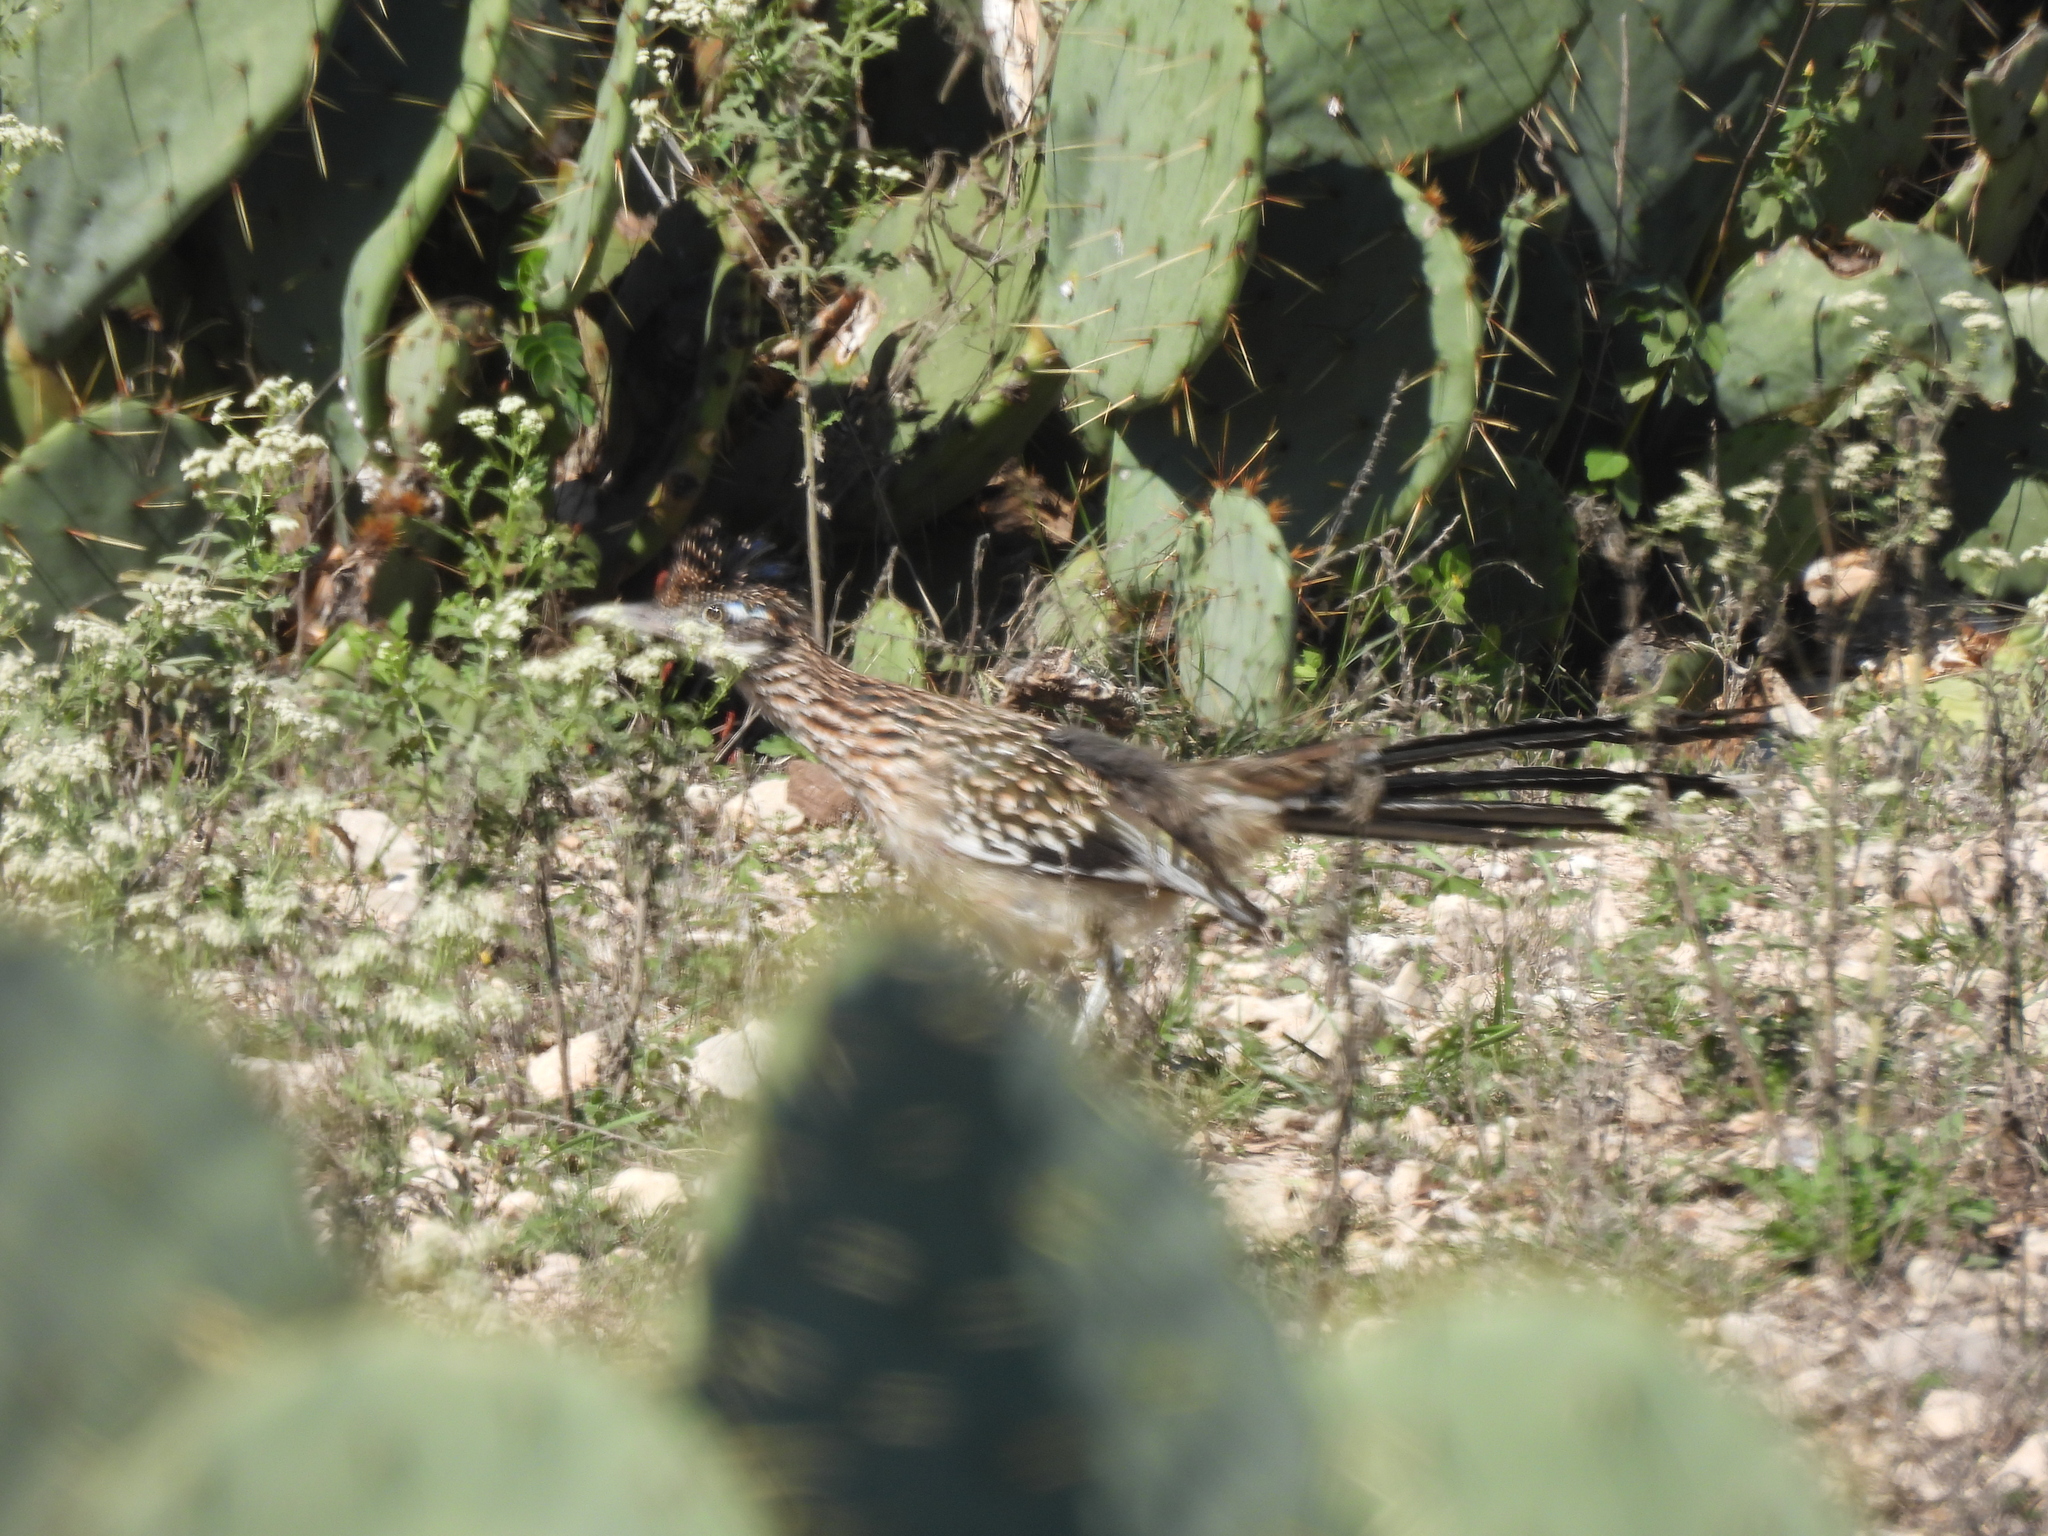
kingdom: Animalia
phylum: Chordata
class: Aves
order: Cuculiformes
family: Cuculidae
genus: Geococcyx
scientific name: Geococcyx californianus
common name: Greater roadrunner
